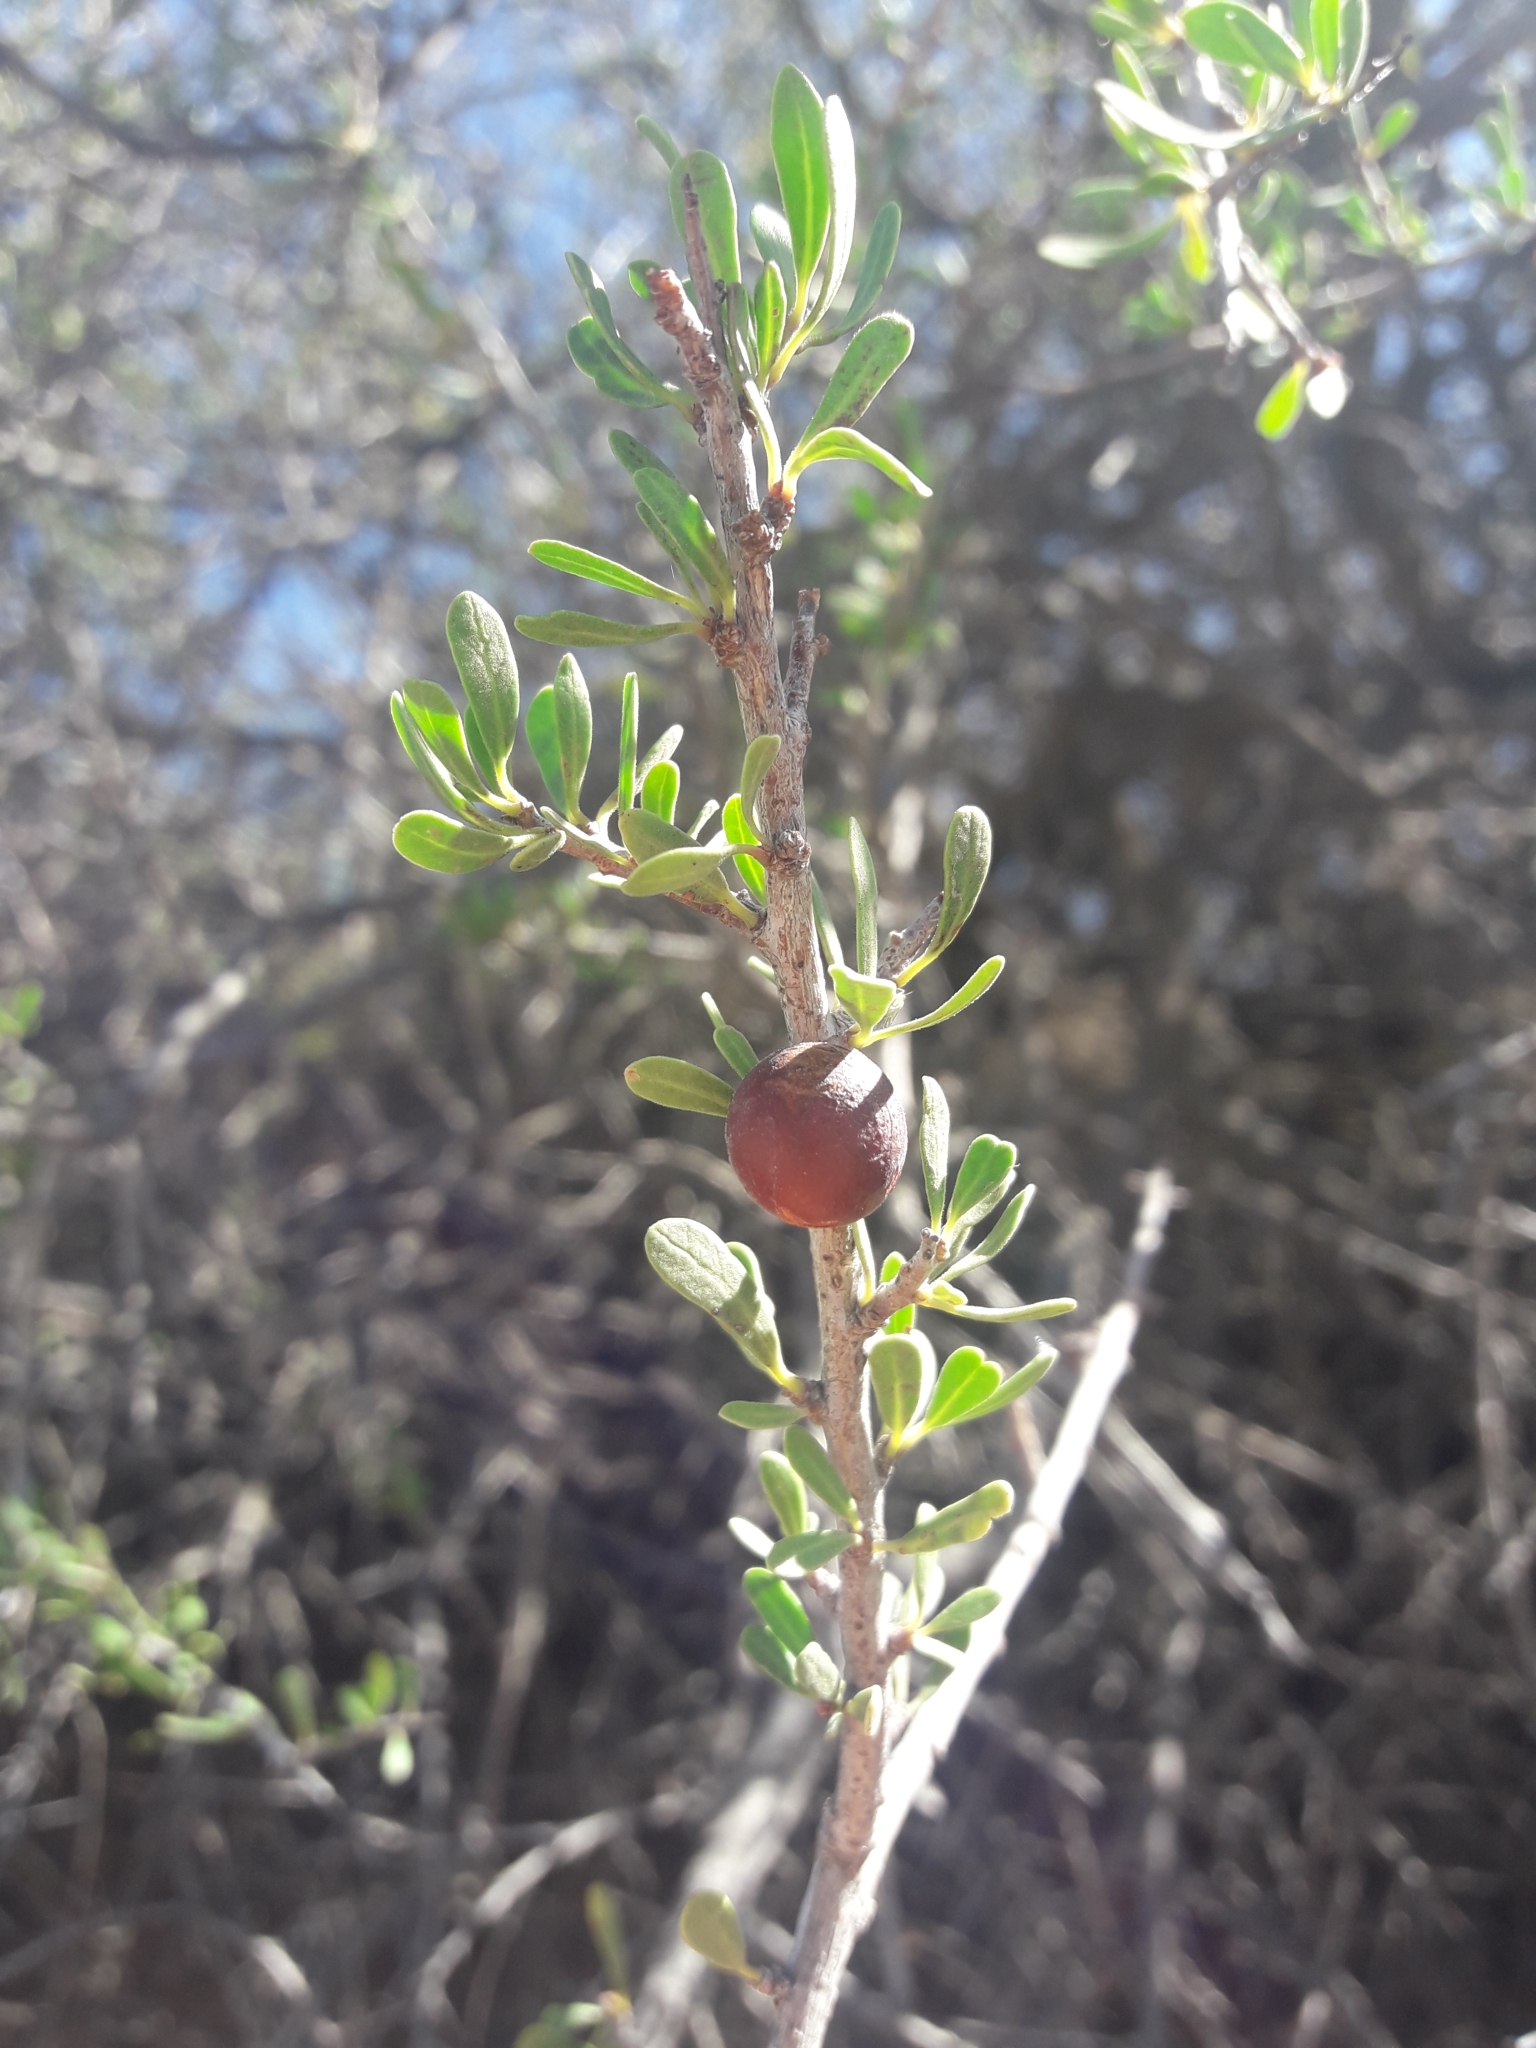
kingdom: Plantae
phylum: Tracheophyta
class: Magnoliopsida
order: Sapindales
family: Anacardiaceae
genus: Schinus
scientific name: Schinus fasciculata
